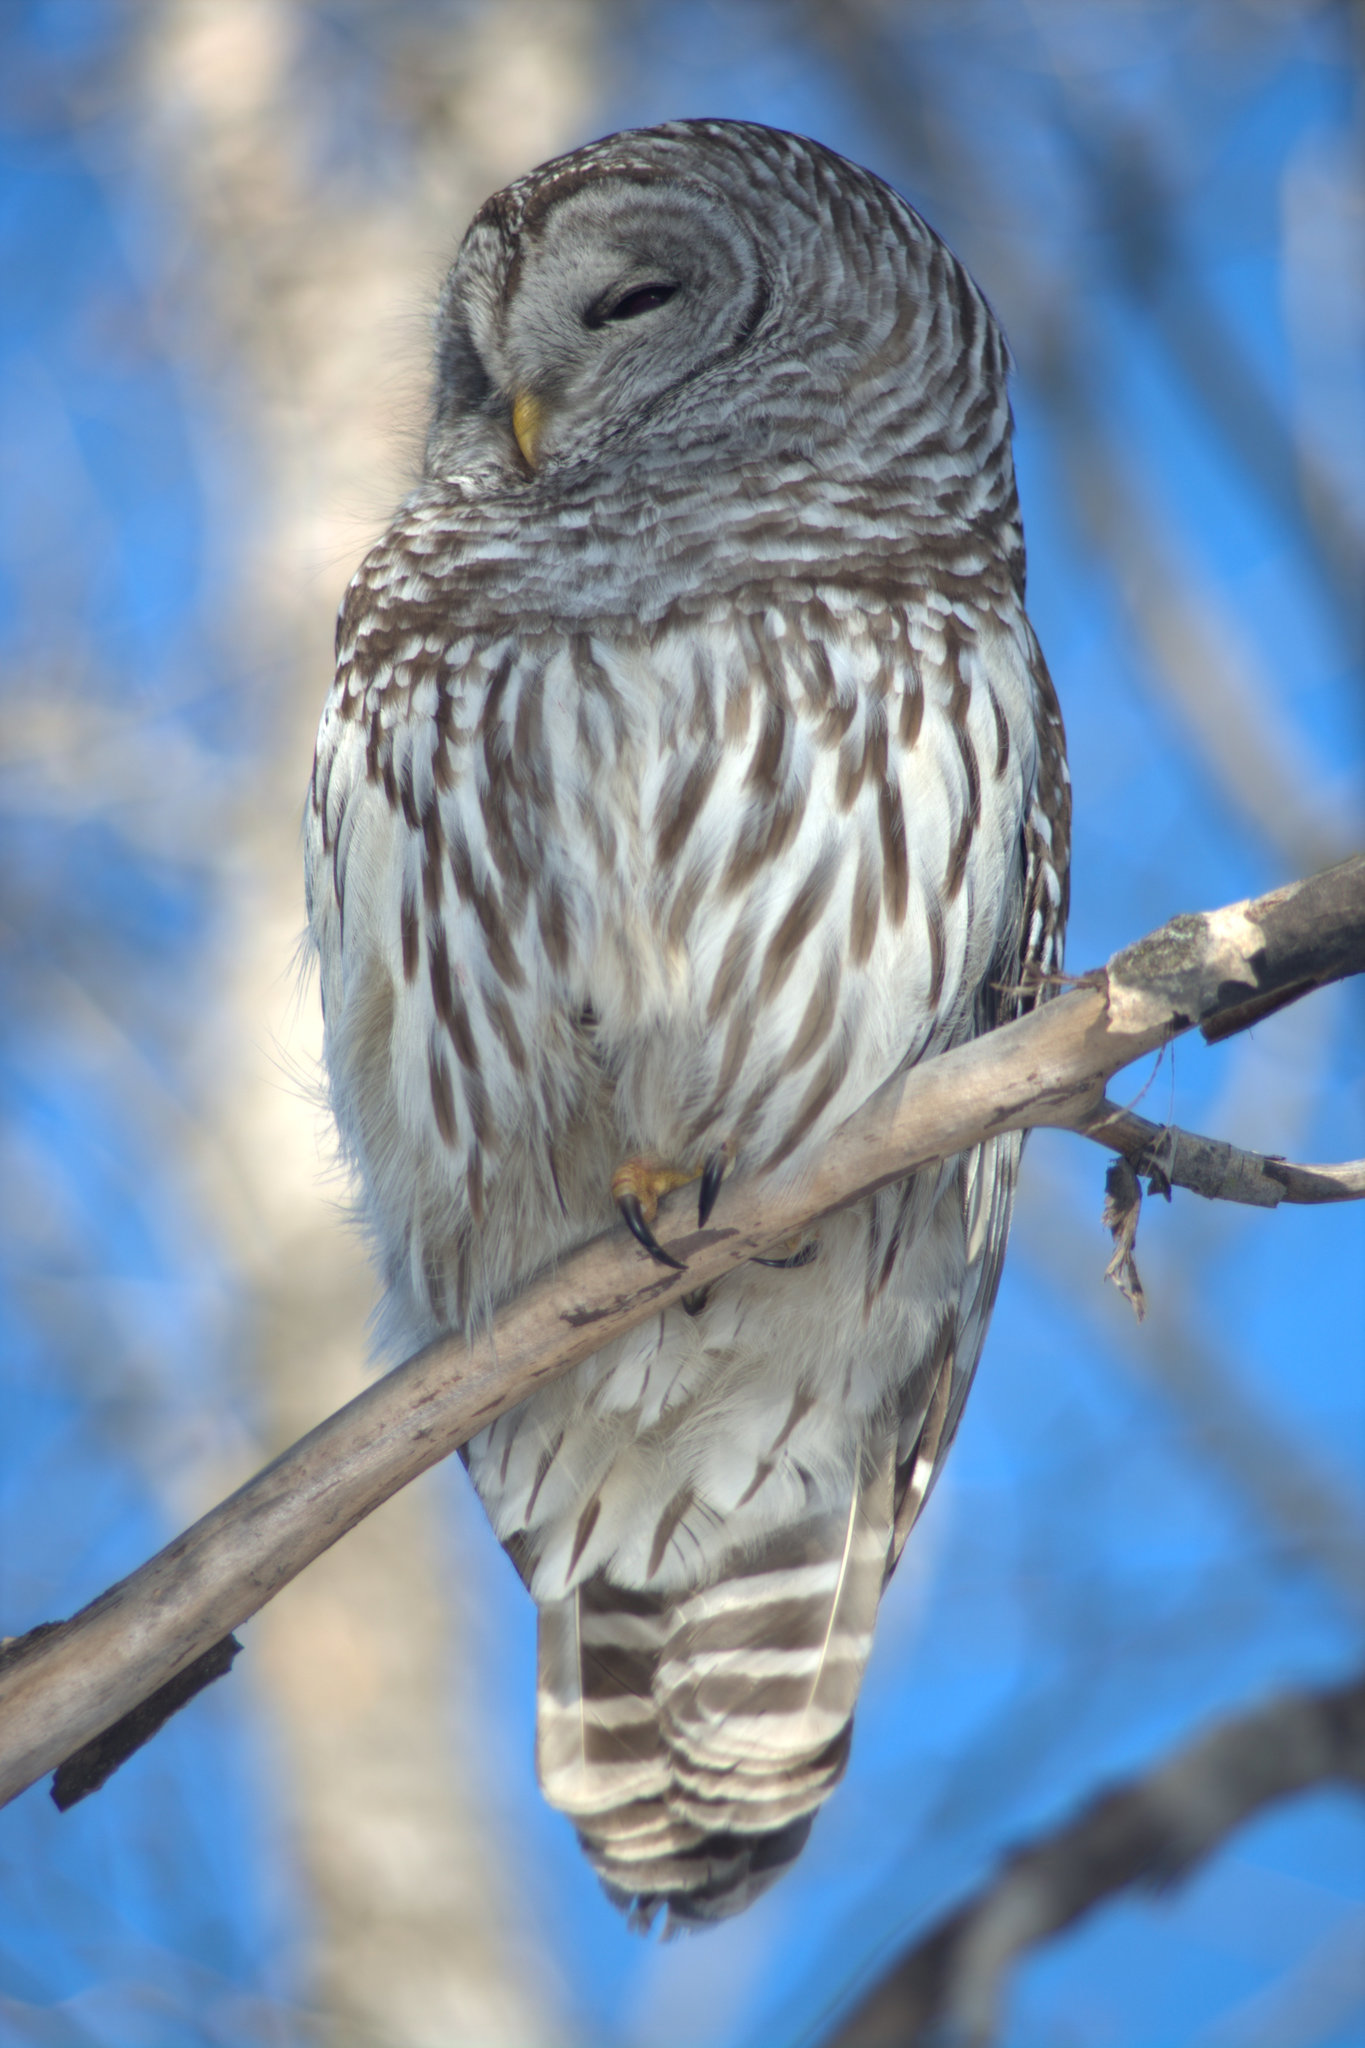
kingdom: Animalia
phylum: Chordata
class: Aves
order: Strigiformes
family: Strigidae
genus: Strix
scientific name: Strix varia
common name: Barred owl
